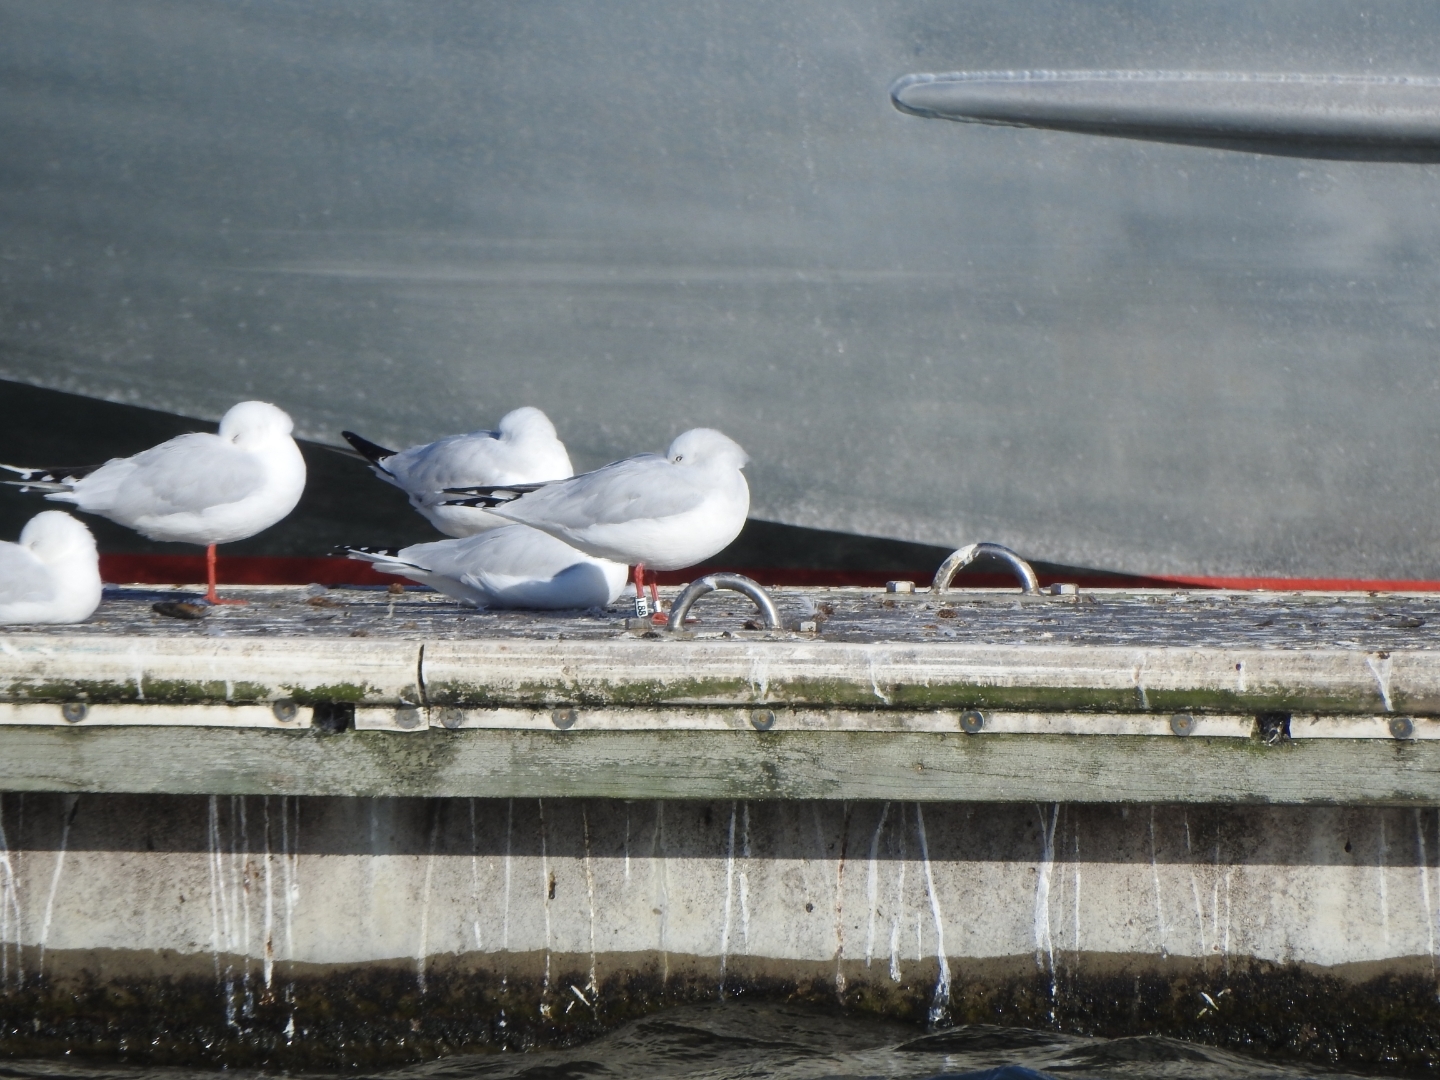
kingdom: Animalia
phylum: Chordata
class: Aves
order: Charadriiformes
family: Laridae
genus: Chroicocephalus
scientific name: Chroicocephalus bulleri
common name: Black-billed gull
